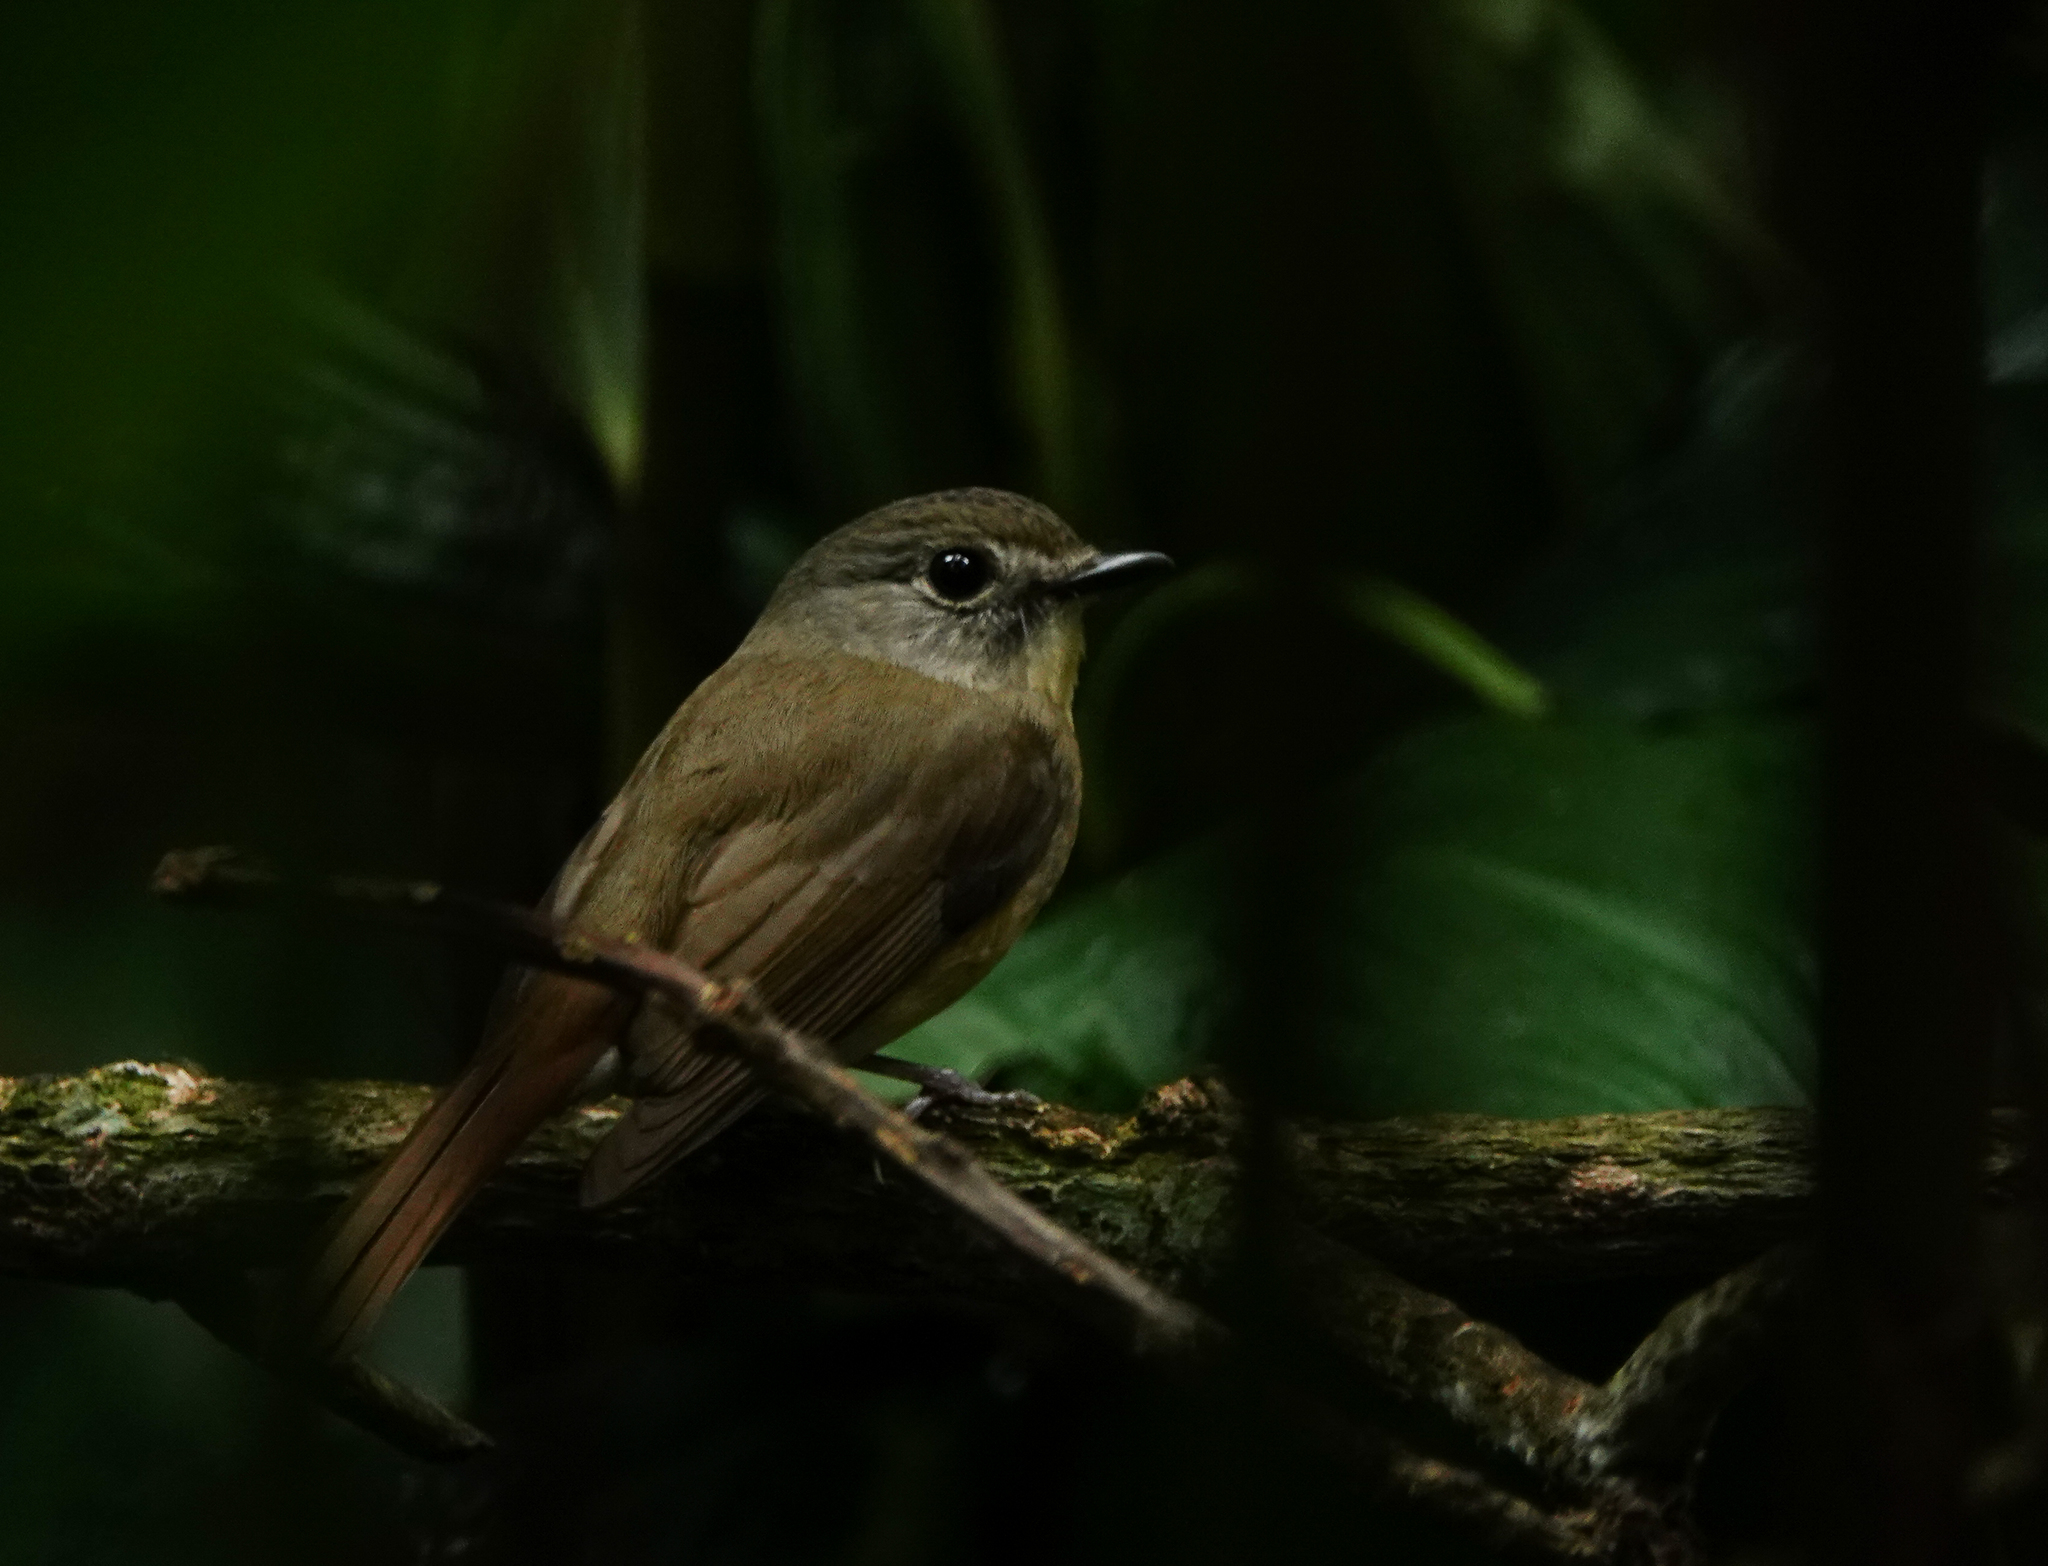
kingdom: Animalia
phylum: Chordata
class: Aves
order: Passeriformes
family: Muscicapidae
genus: Cyornis
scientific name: Cyornis poliogenys
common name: Pale-chinned blue flycatcher
